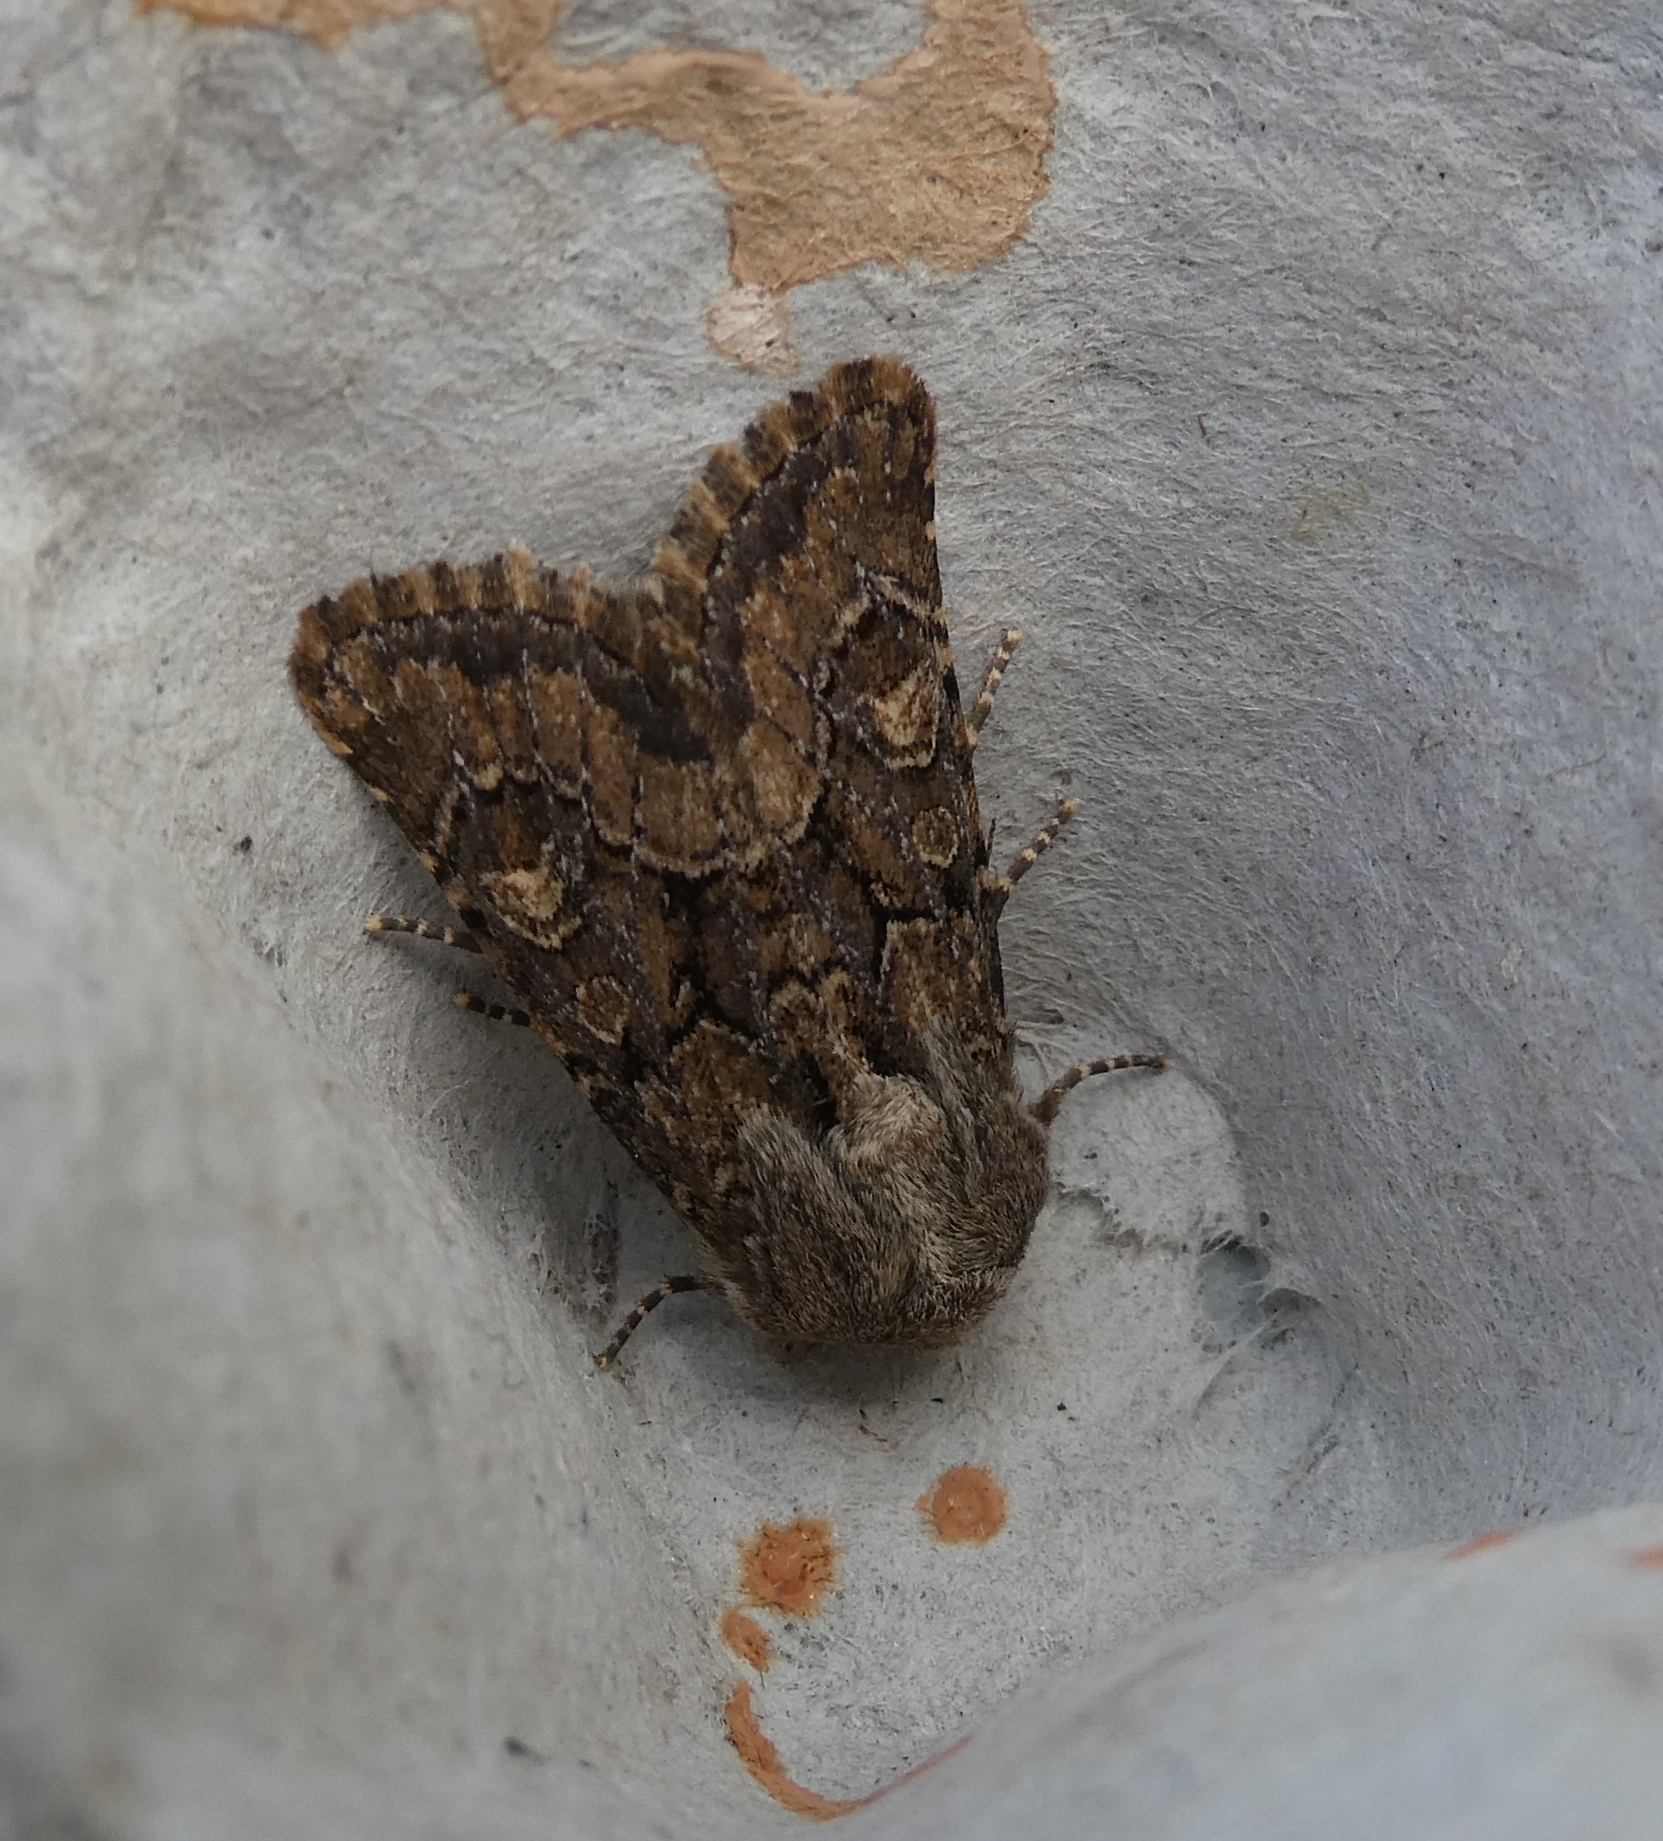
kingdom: Animalia
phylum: Arthropoda
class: Insecta
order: Lepidoptera
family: Noctuidae
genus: Luperina
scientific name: Luperina testacea
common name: Flounced rustic
